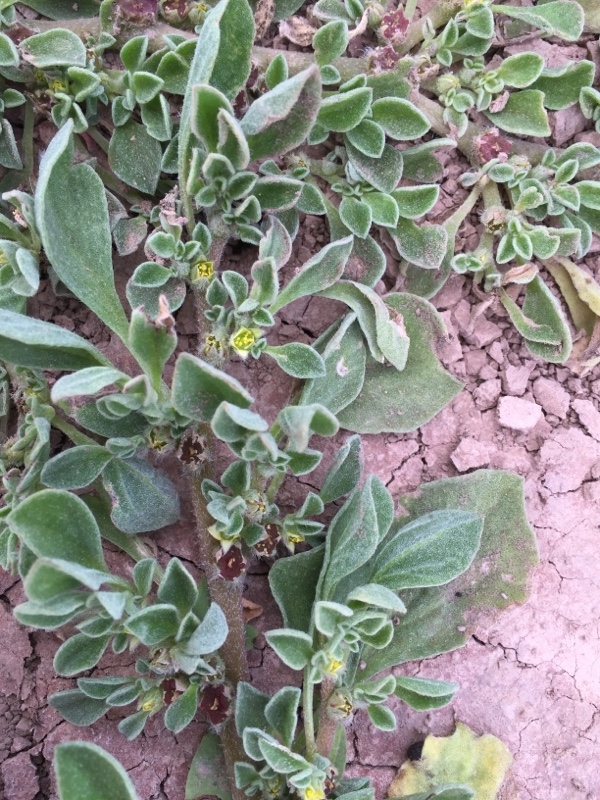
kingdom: Plantae
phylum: Tracheophyta
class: Magnoliopsida
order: Caryophyllales
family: Aizoaceae
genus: Aizoon
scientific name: Aizoon canariense
